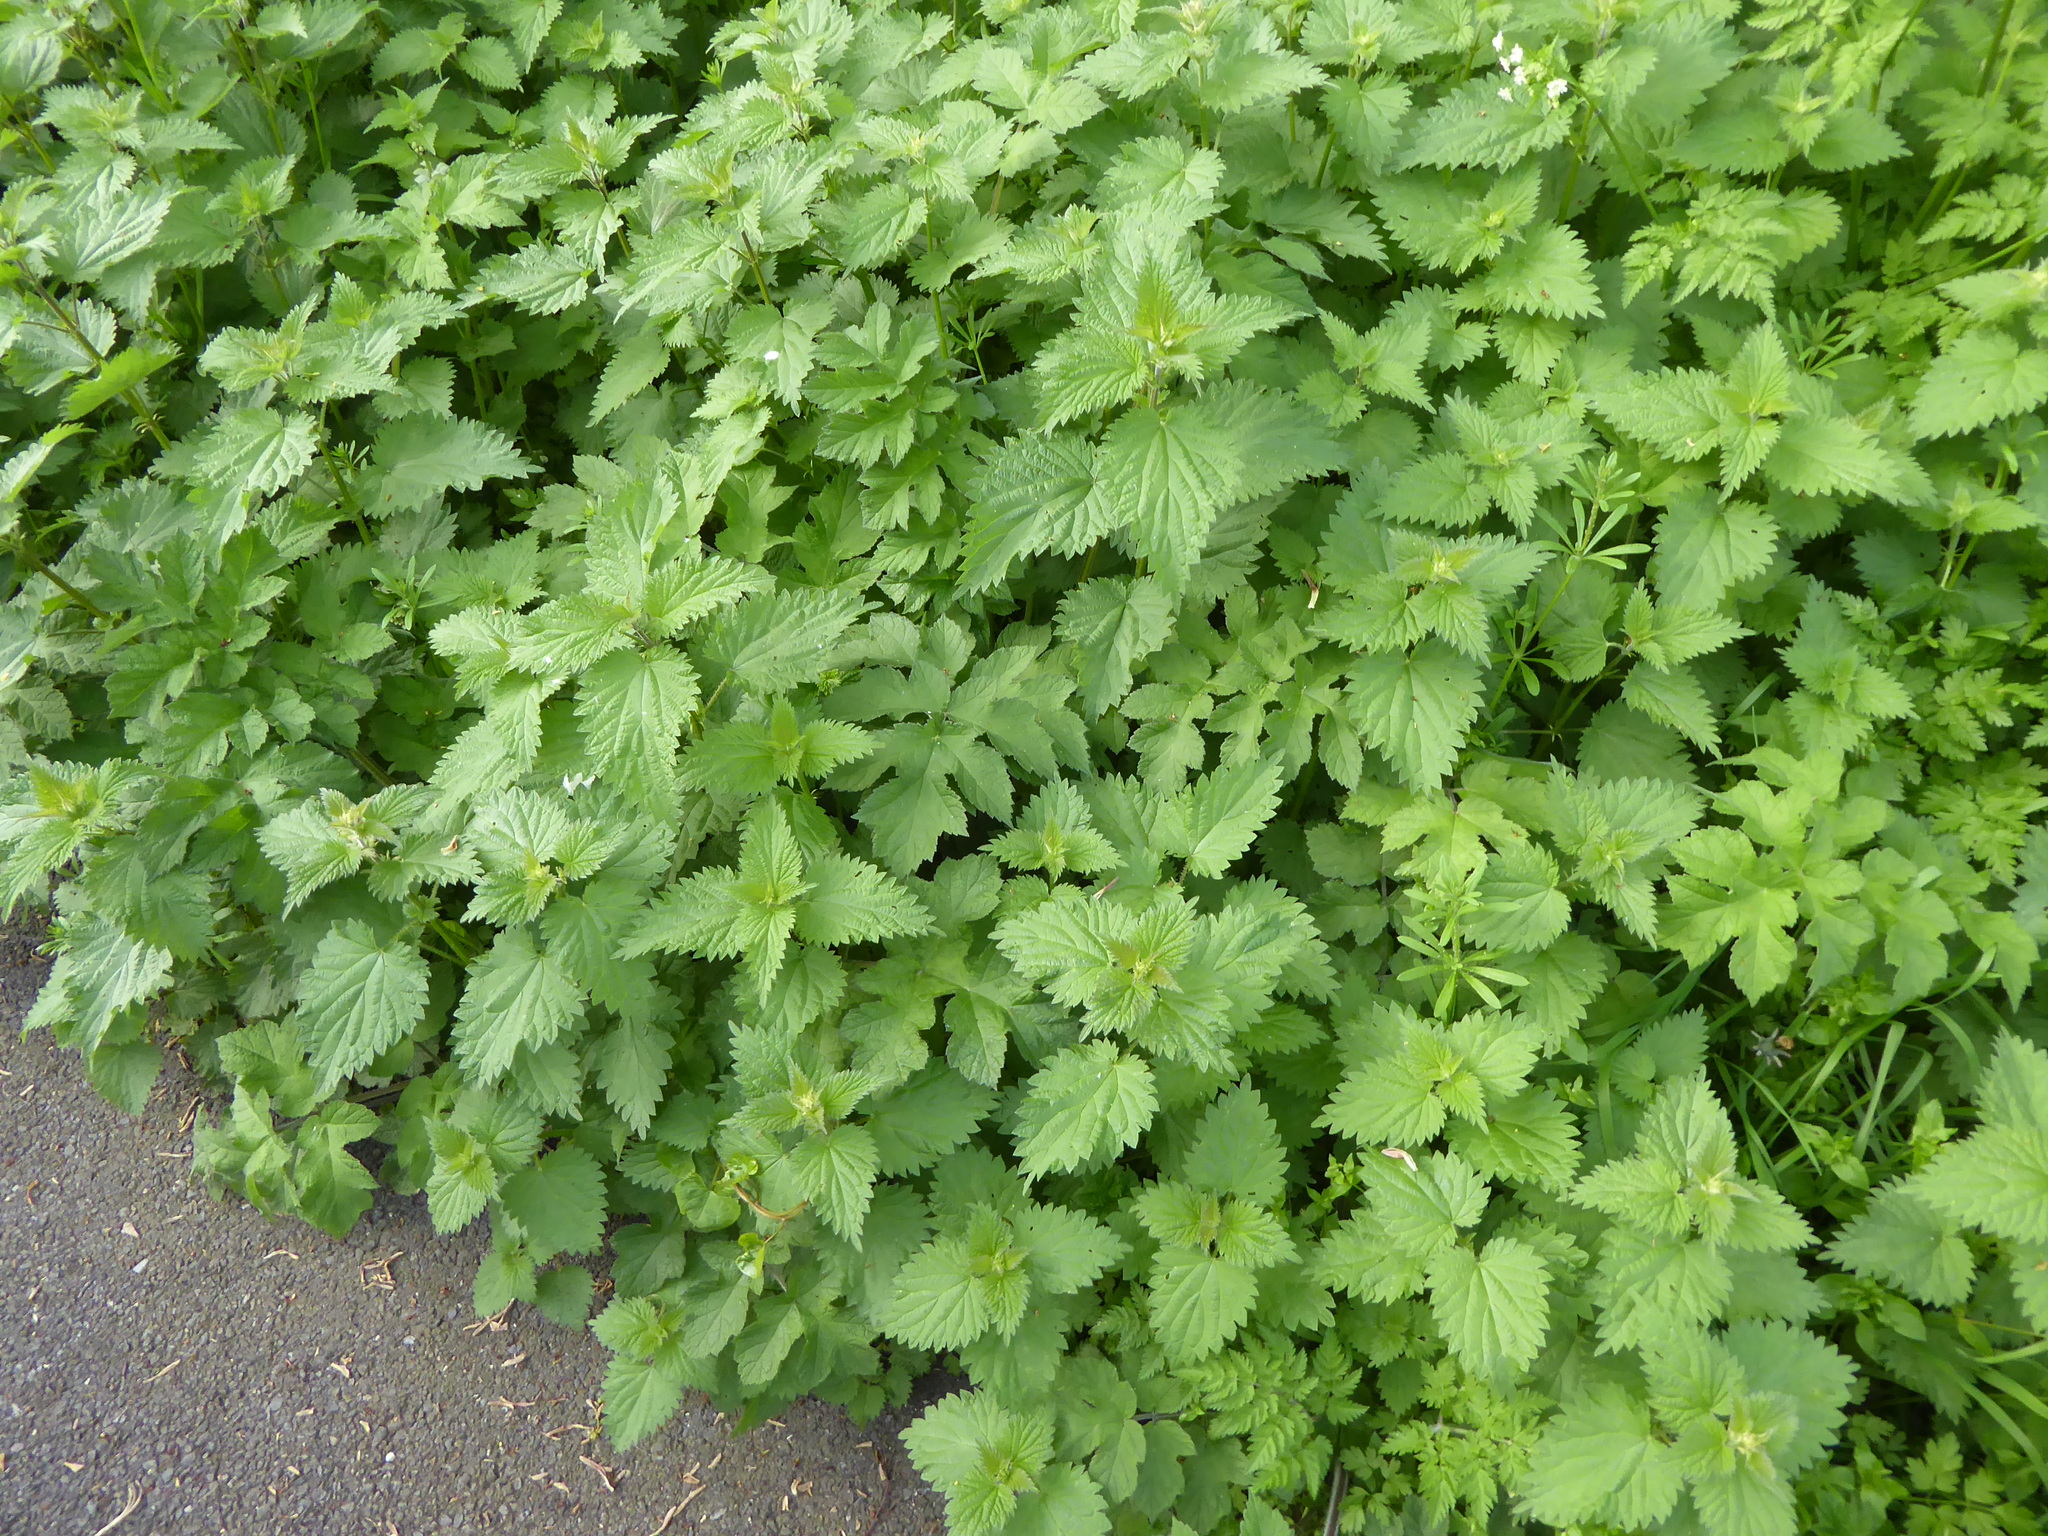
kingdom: Plantae
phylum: Tracheophyta
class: Magnoliopsida
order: Rosales
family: Urticaceae
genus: Urtica
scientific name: Urtica dioica
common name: Common nettle
